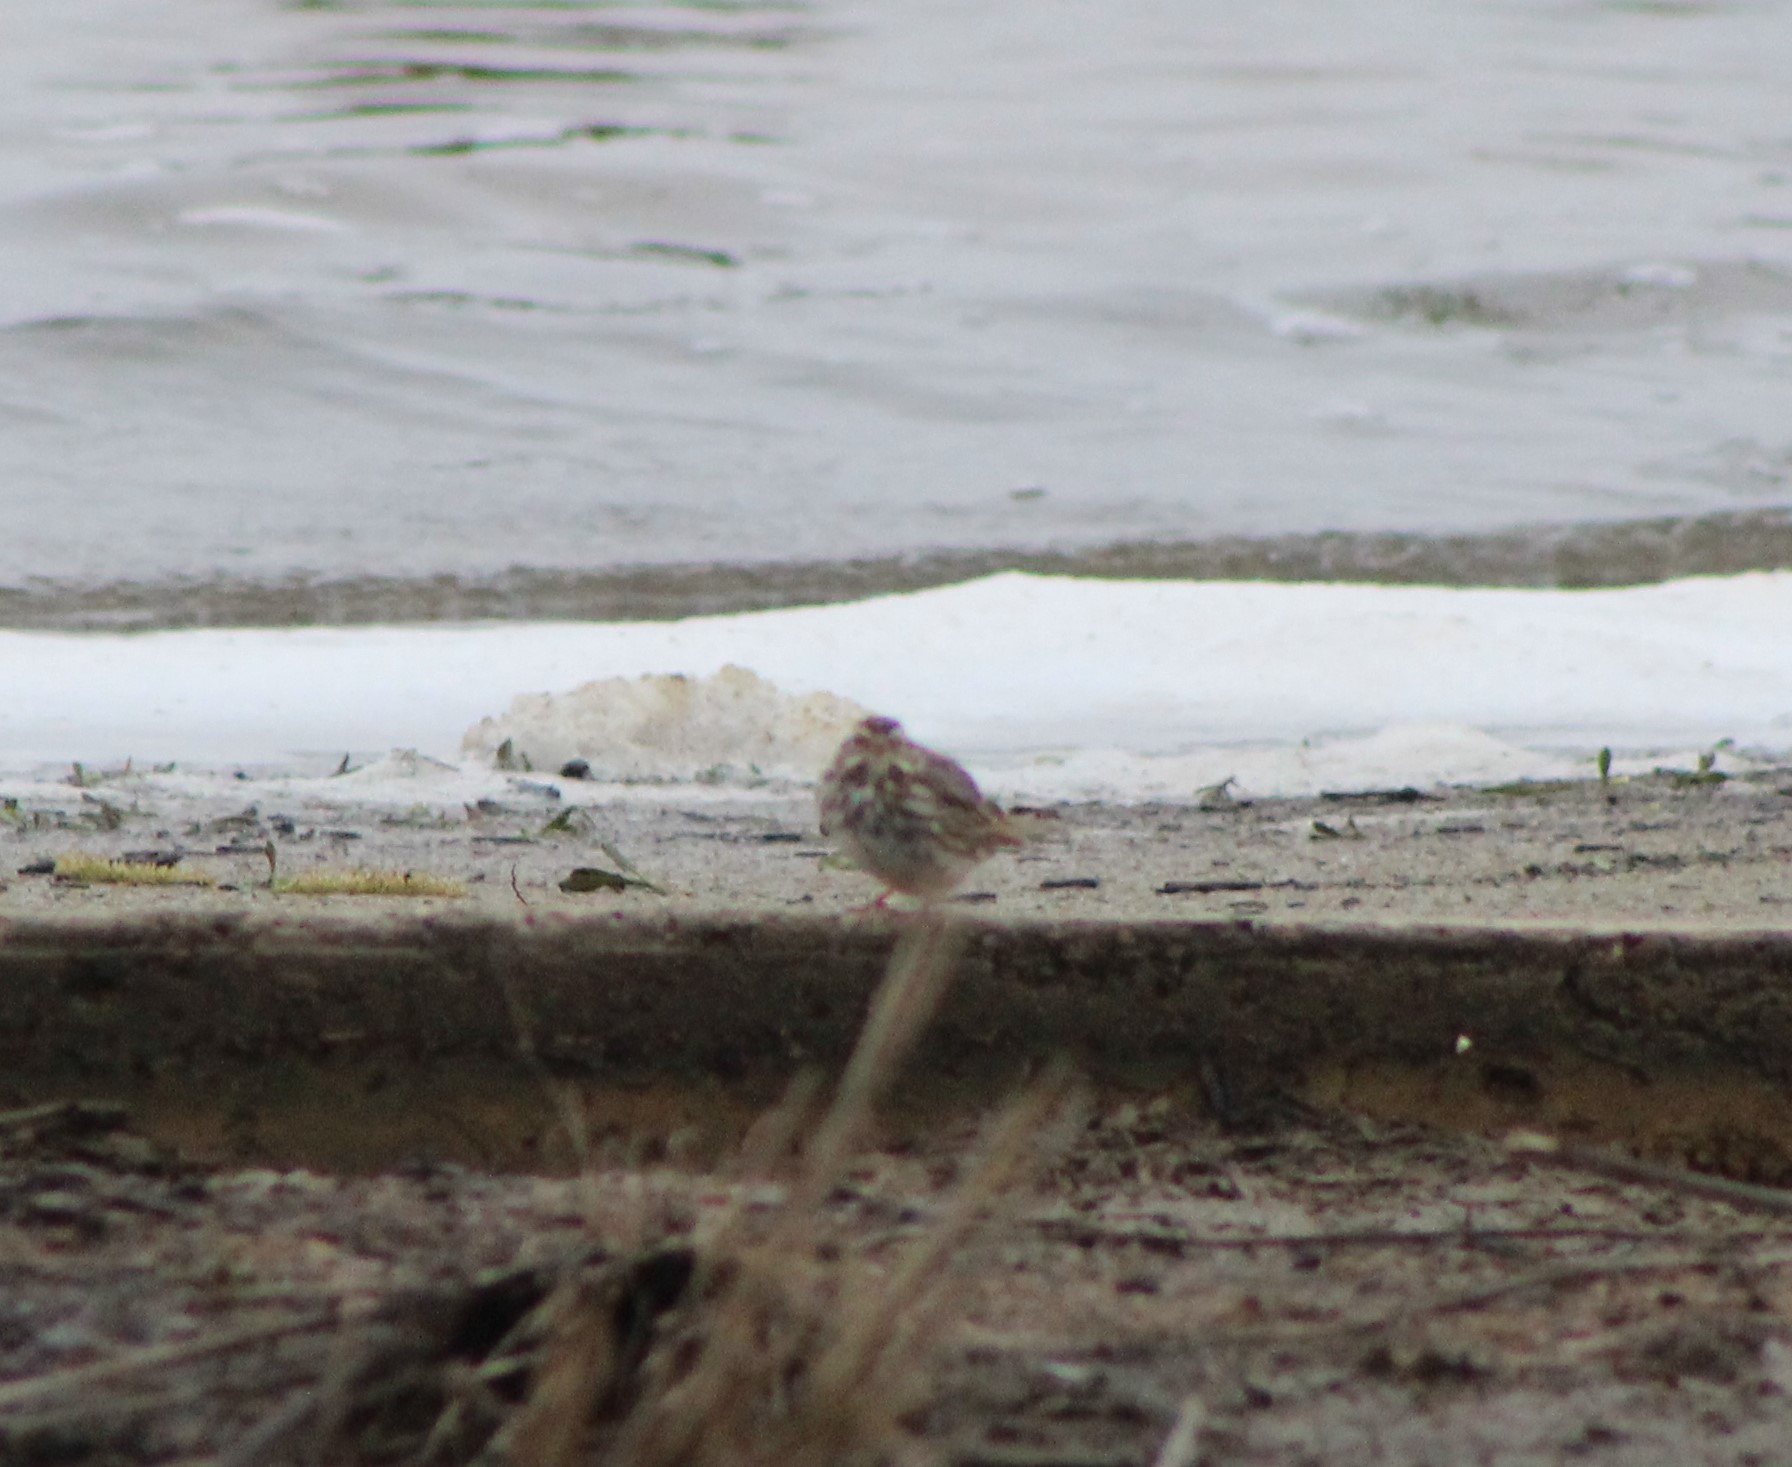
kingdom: Animalia
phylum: Chordata
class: Aves
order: Passeriformes
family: Passerellidae
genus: Passerculus
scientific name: Passerculus sandwichensis
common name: Savannah sparrow
